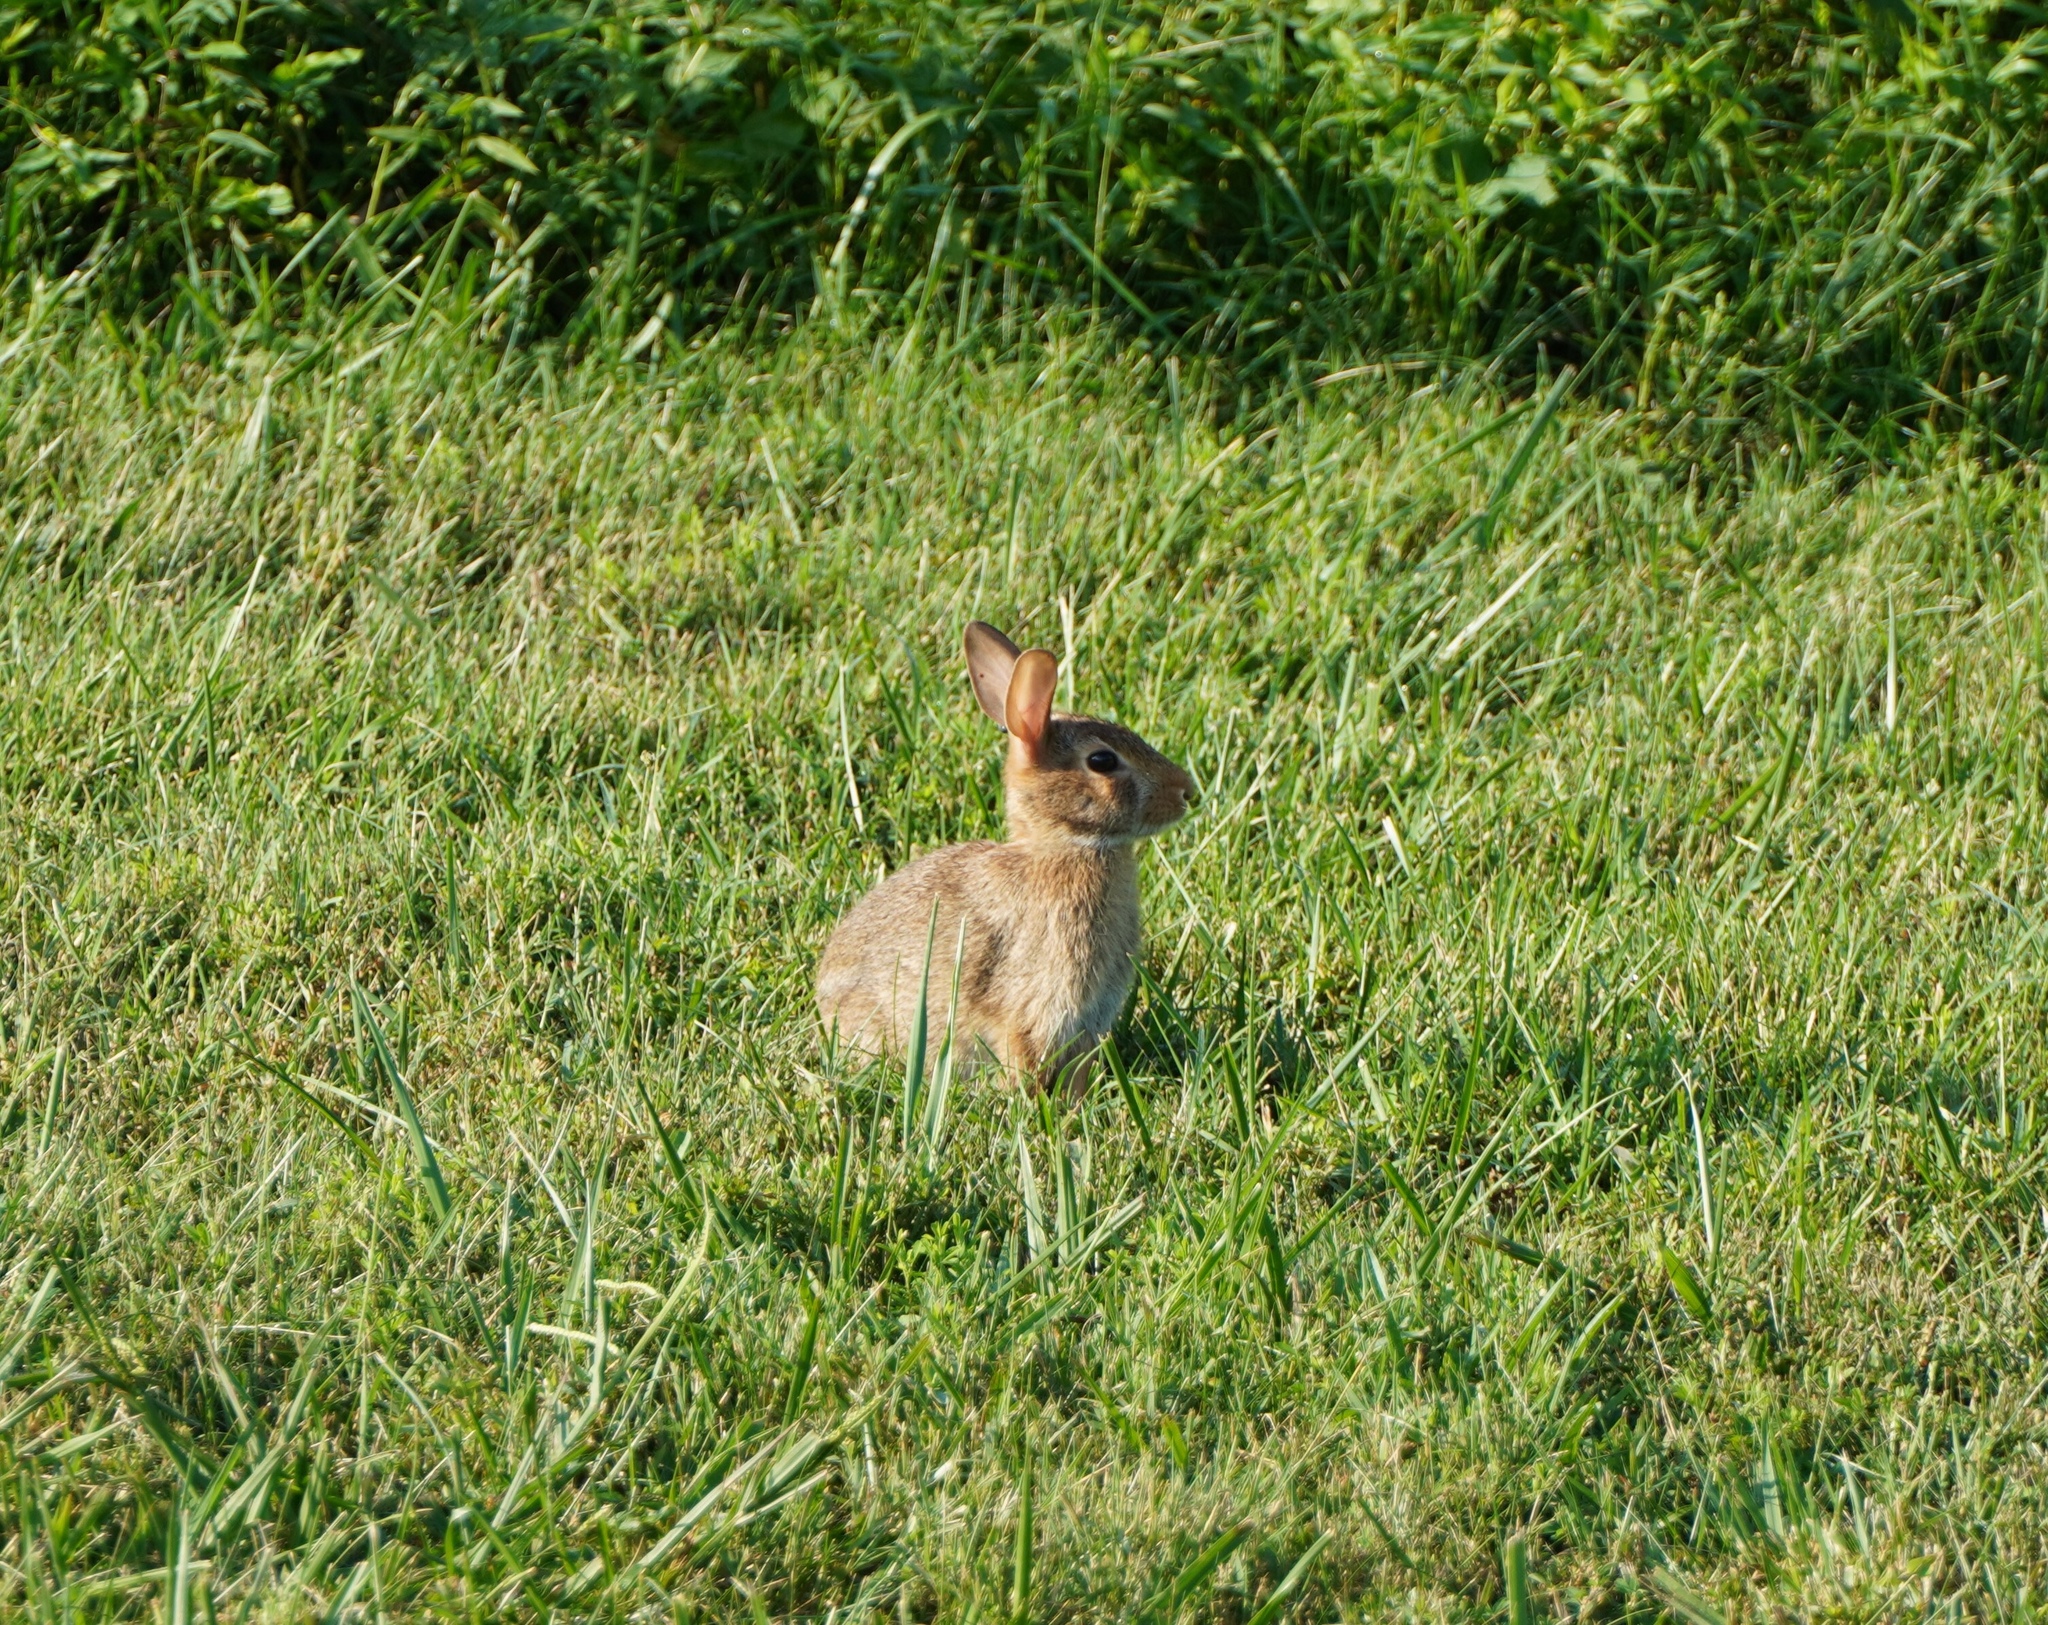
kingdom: Animalia
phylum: Chordata
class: Mammalia
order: Lagomorpha
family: Leporidae
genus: Sylvilagus
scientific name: Sylvilagus floridanus
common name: Eastern cottontail
